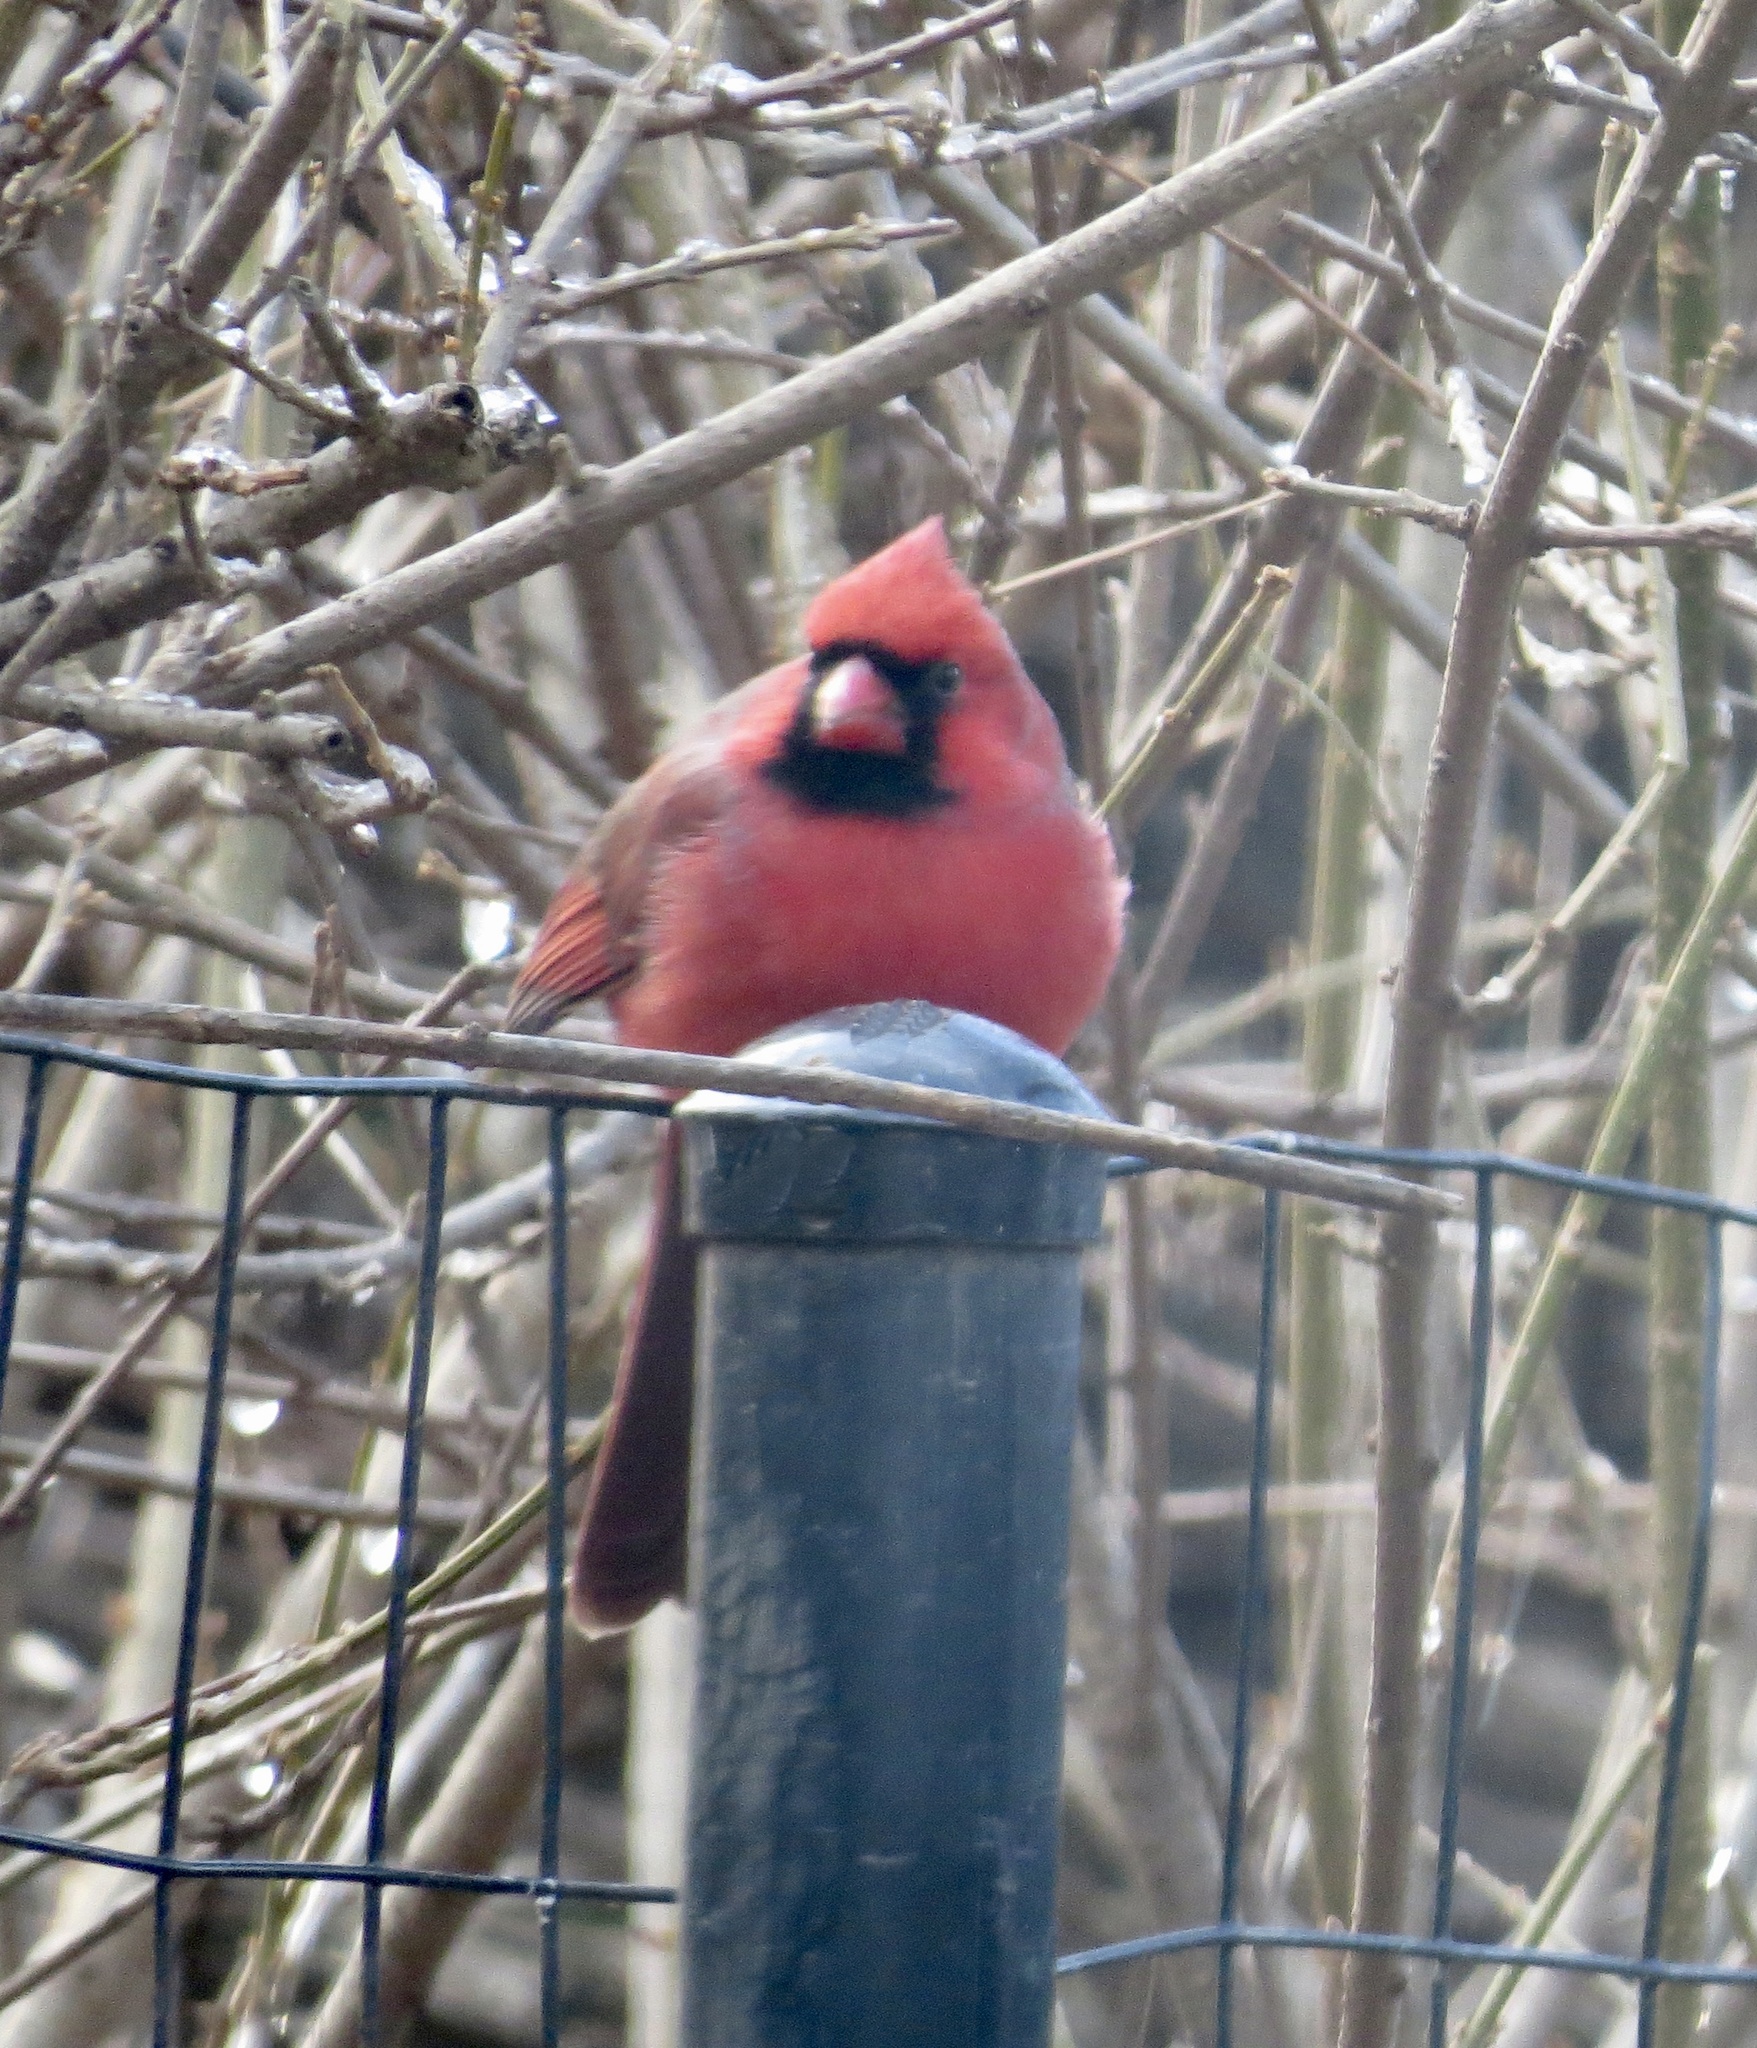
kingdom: Animalia
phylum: Chordata
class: Aves
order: Passeriformes
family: Cardinalidae
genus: Cardinalis
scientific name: Cardinalis cardinalis
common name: Northern cardinal
